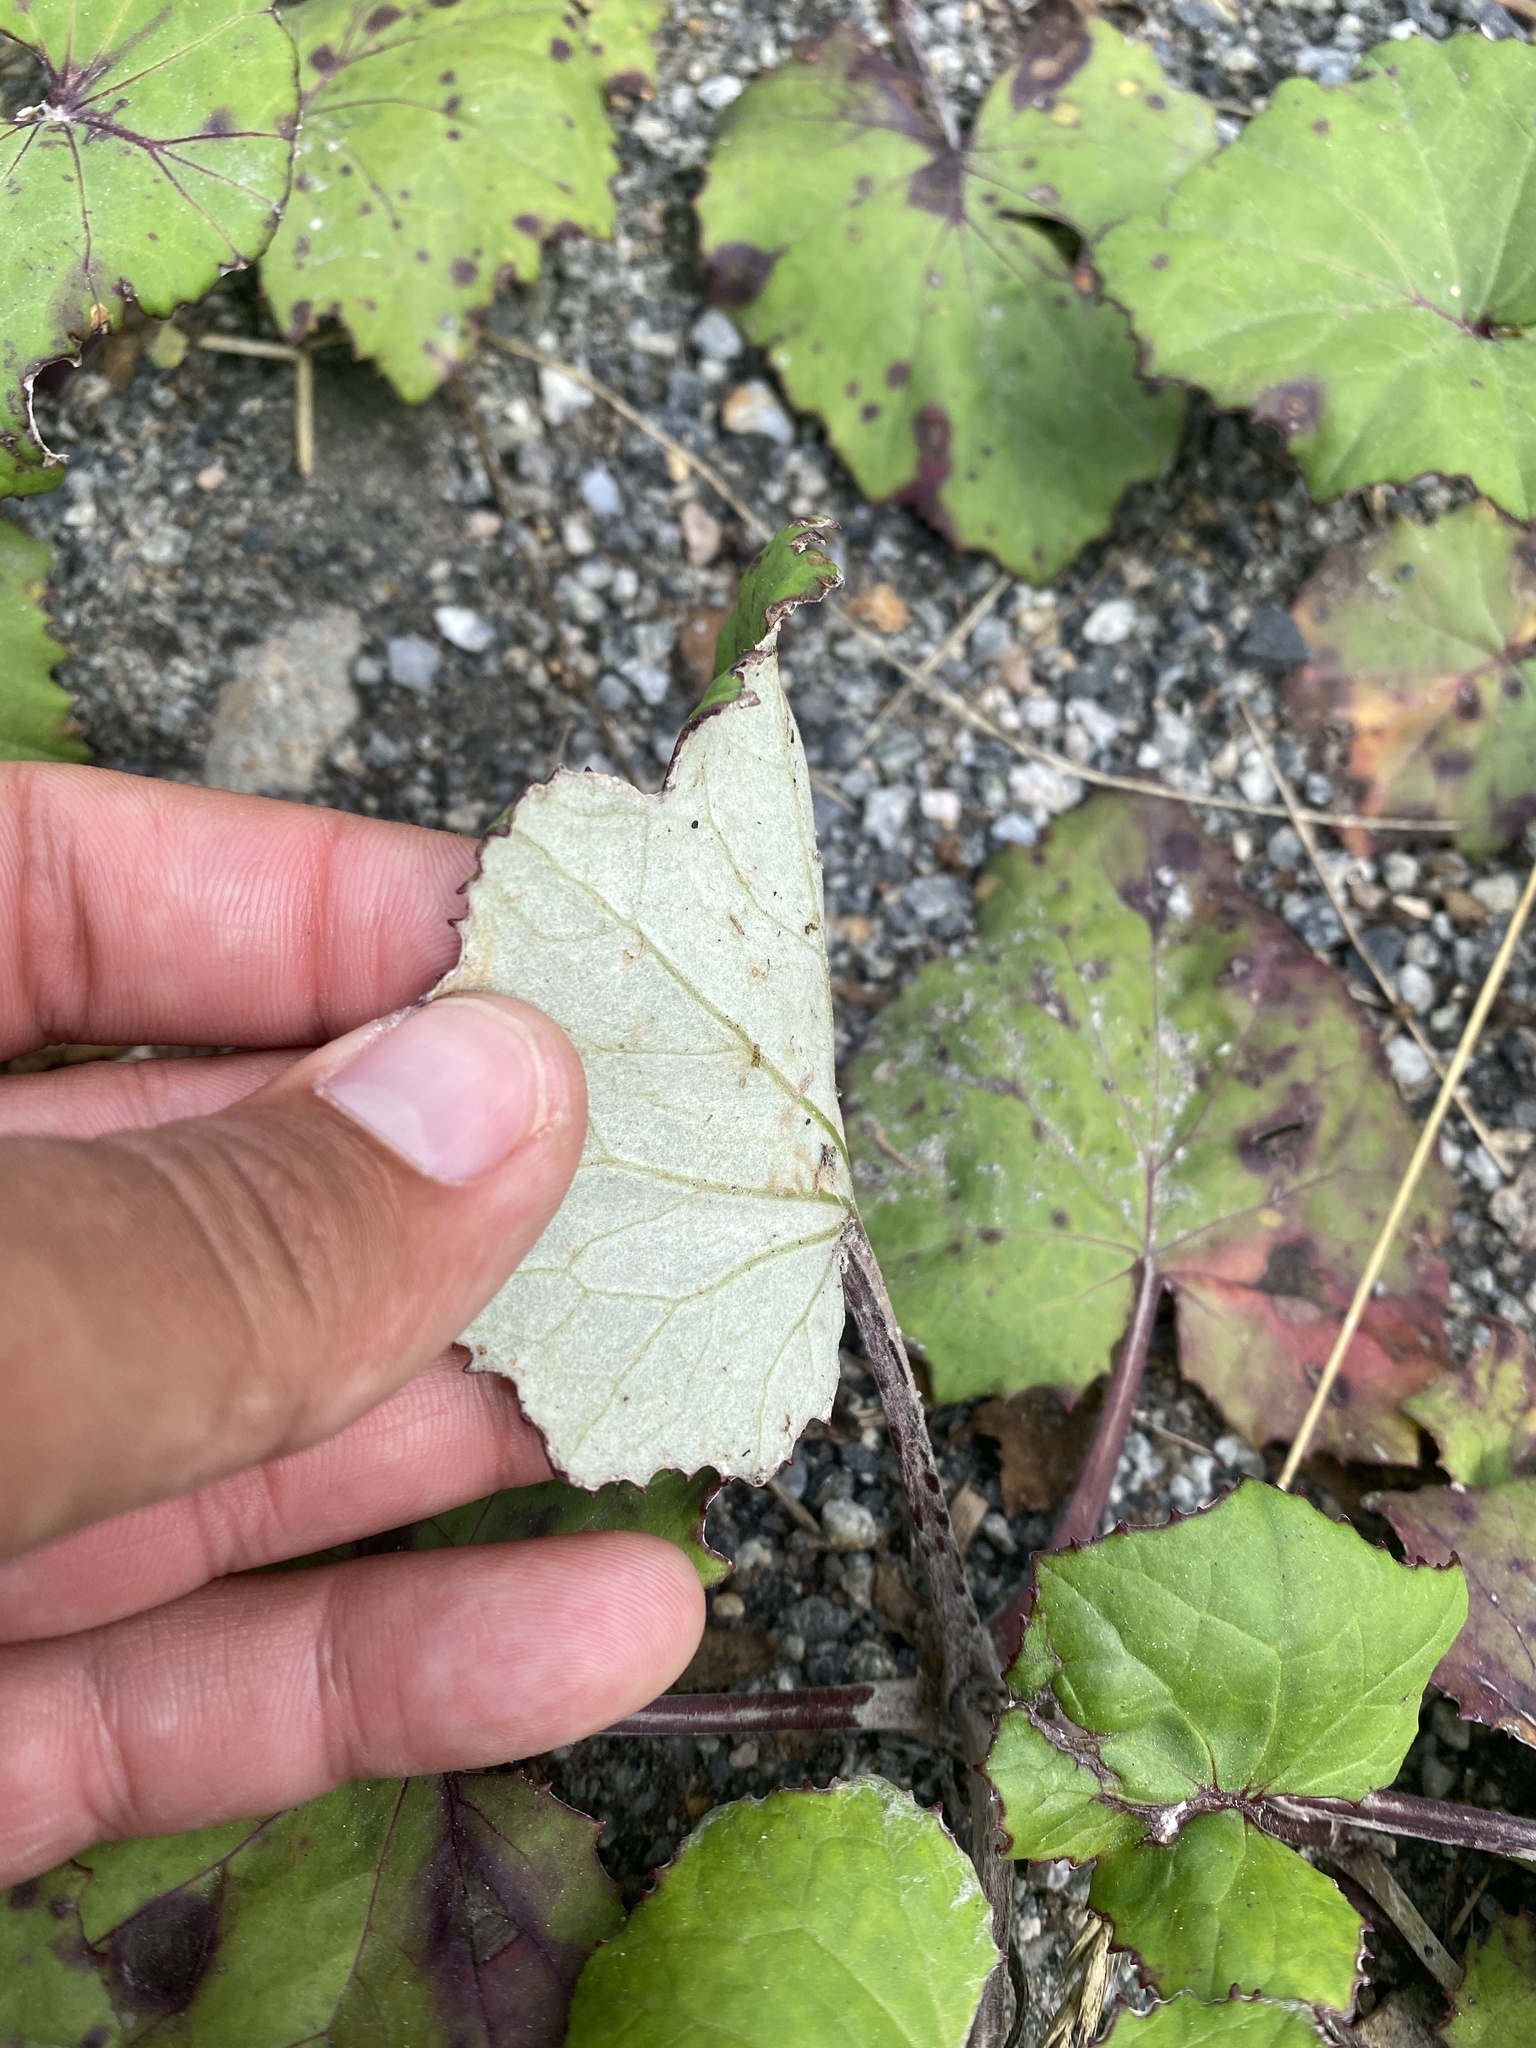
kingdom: Plantae
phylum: Tracheophyta
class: Magnoliopsida
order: Asterales
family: Asteraceae
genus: Tussilago
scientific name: Tussilago farfara
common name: Coltsfoot
